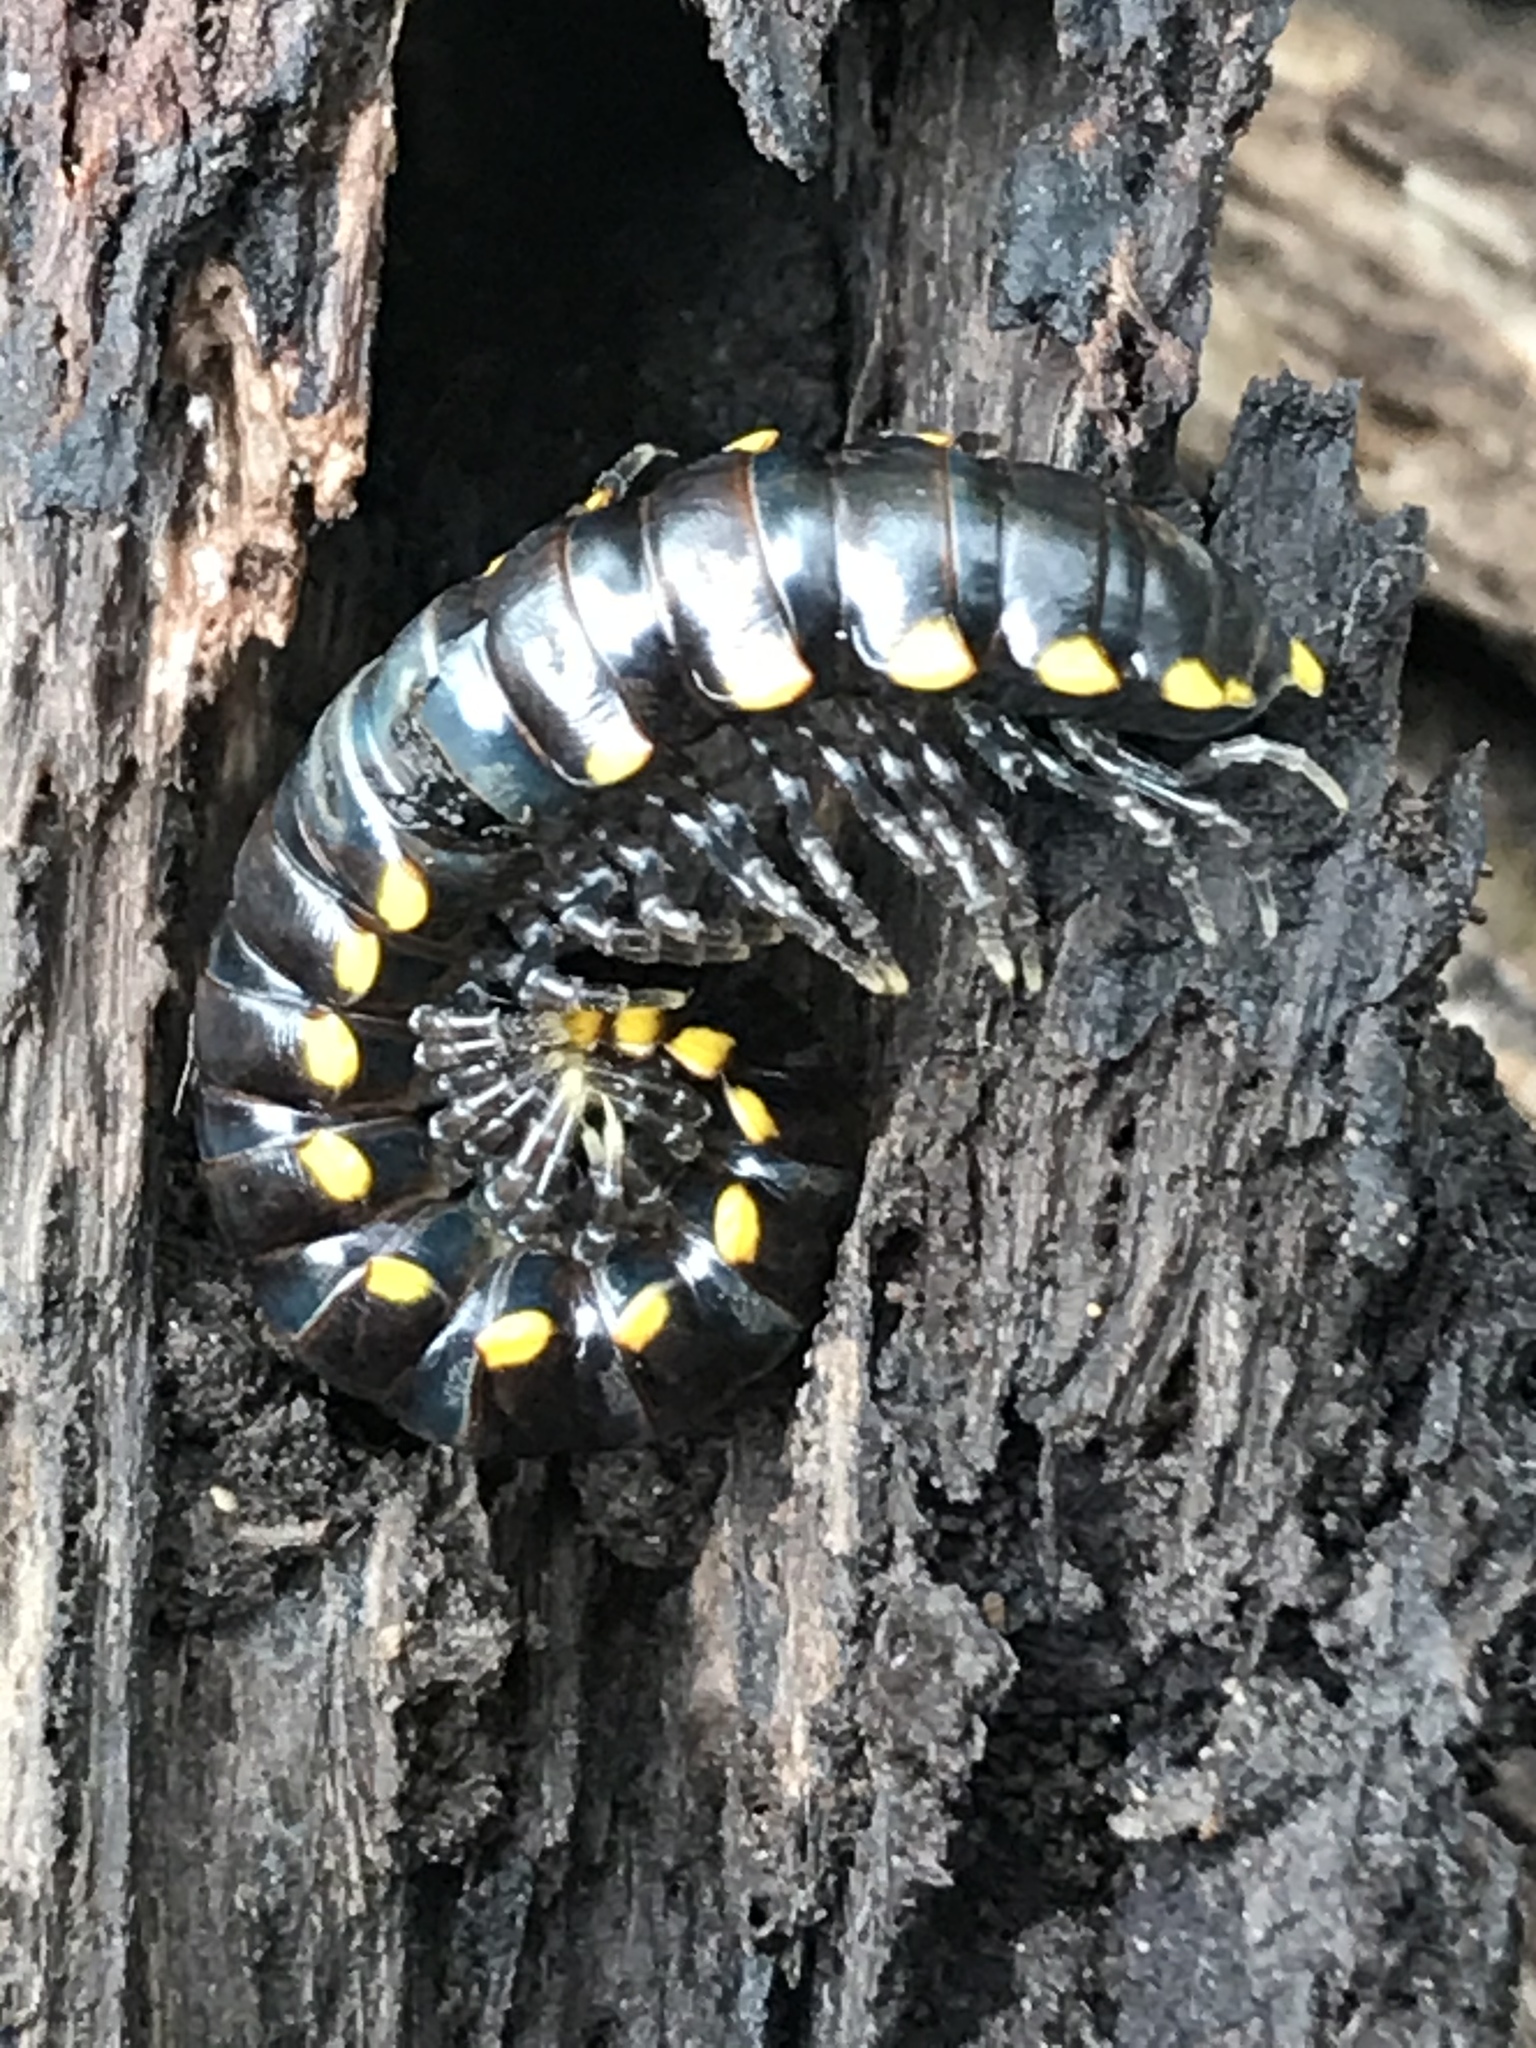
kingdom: Animalia
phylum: Arthropoda
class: Diplopoda
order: Polydesmida
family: Xystodesmidae
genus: Harpaphe
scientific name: Harpaphe haydeniana
